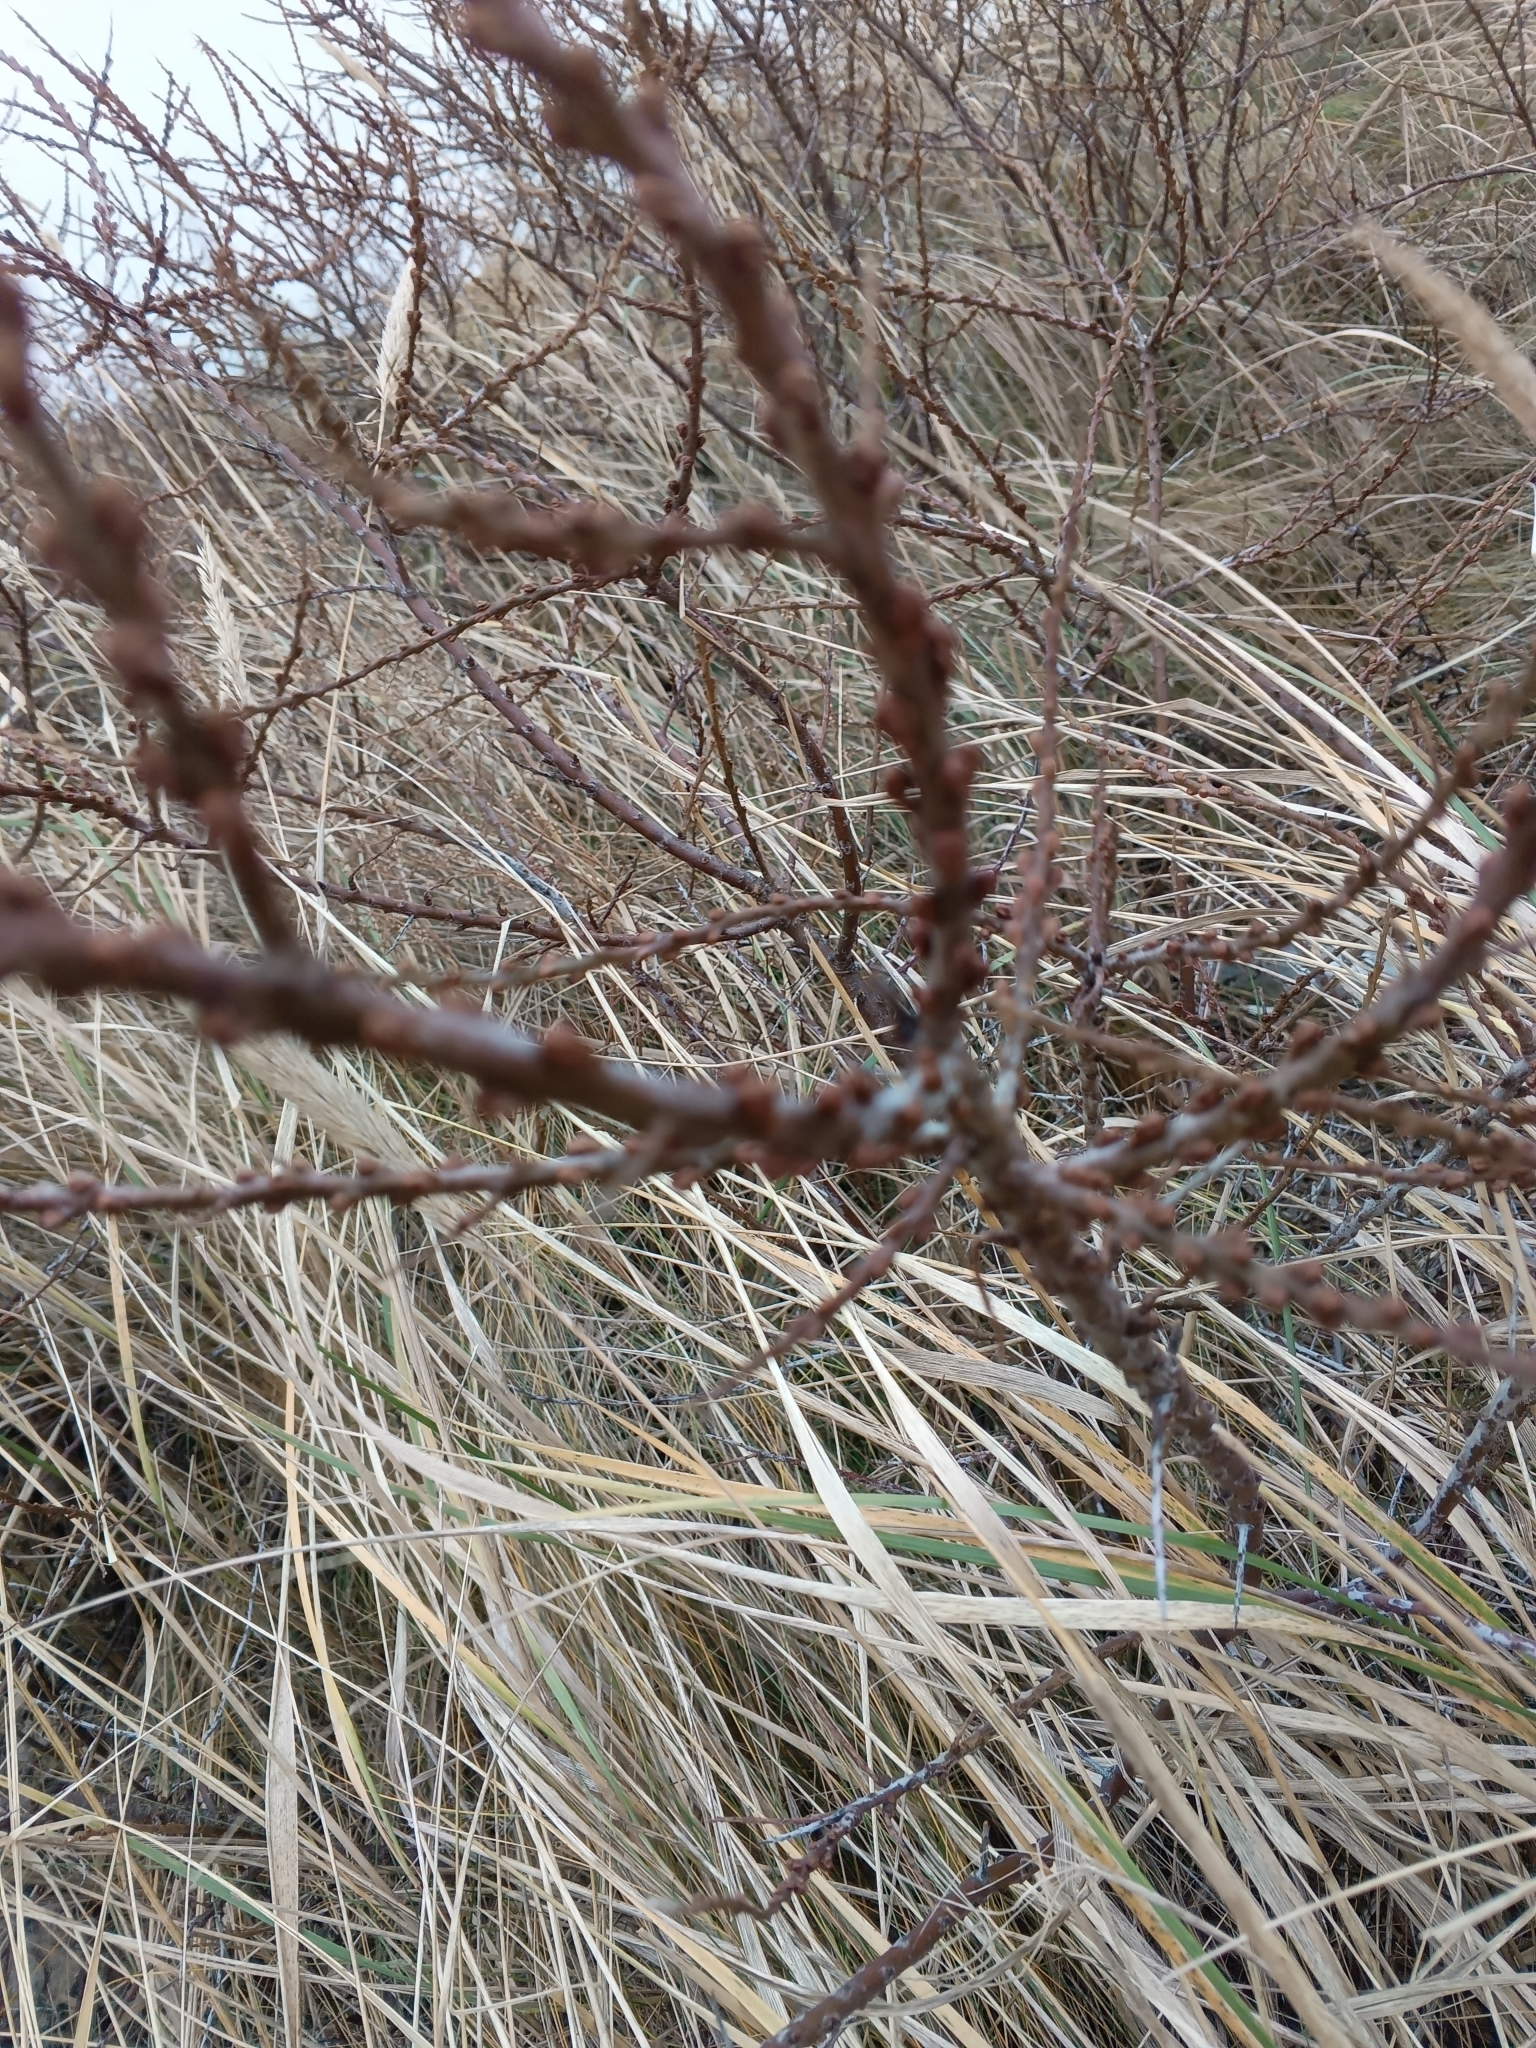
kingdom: Plantae
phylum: Tracheophyta
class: Magnoliopsida
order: Rosales
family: Elaeagnaceae
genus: Hippophae
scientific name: Hippophae rhamnoides
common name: Sea-buckthorn
